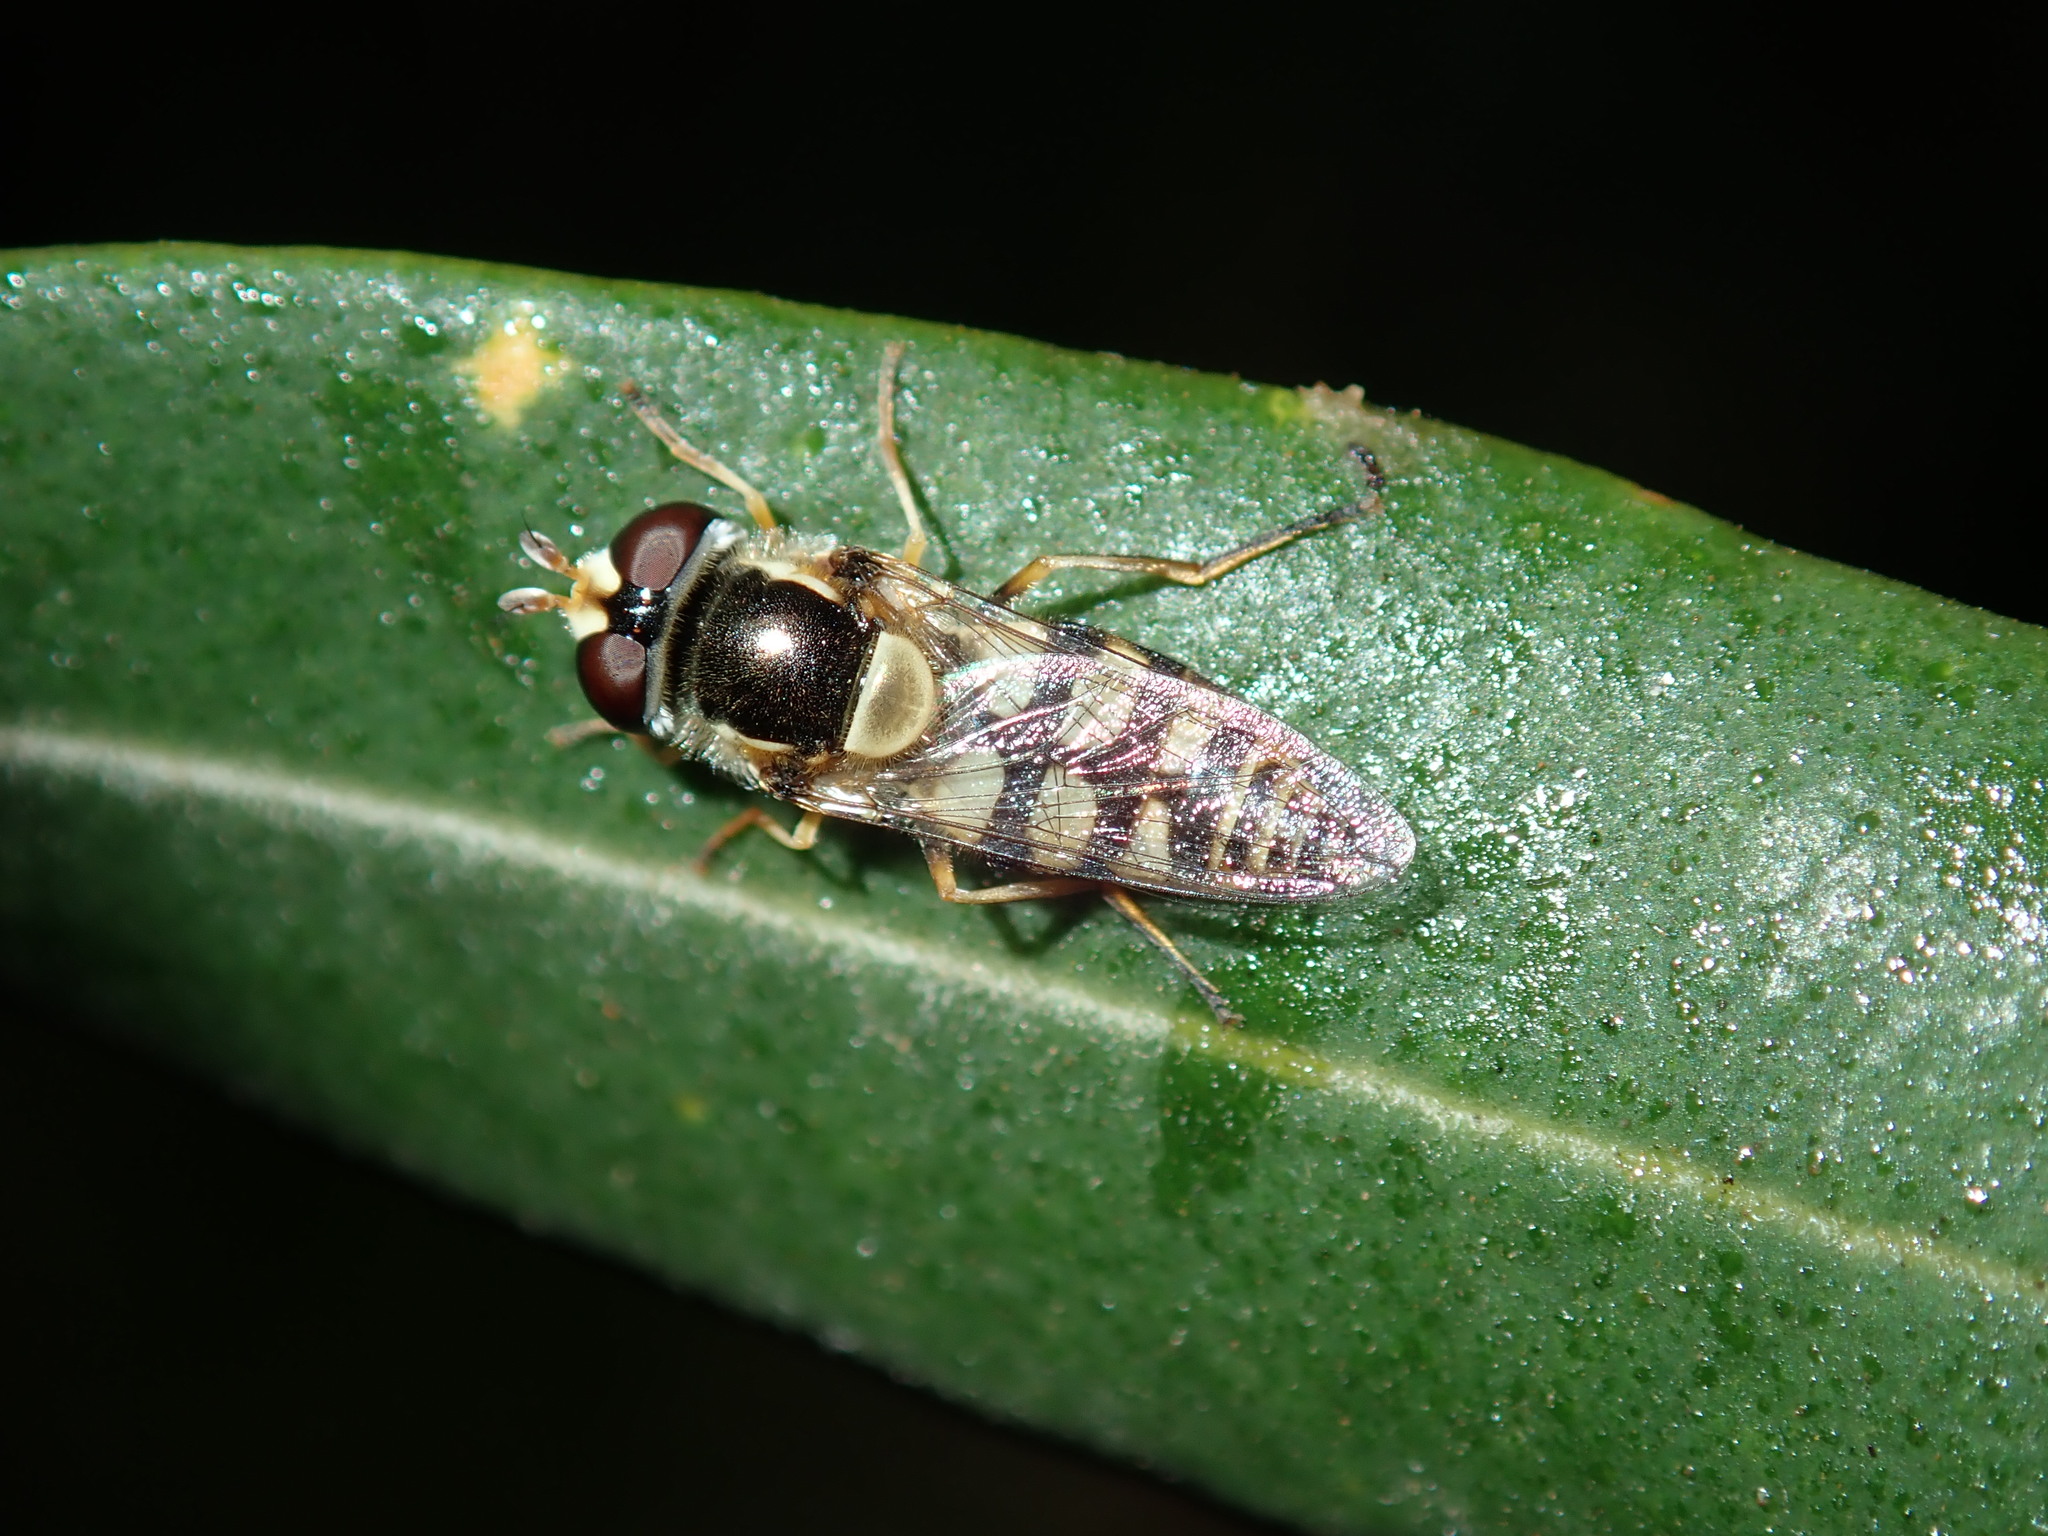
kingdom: Animalia
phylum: Arthropoda
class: Insecta
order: Diptera
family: Syrphidae
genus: Simosyrphus
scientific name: Simosyrphus grandicornis
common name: Hoverfly
